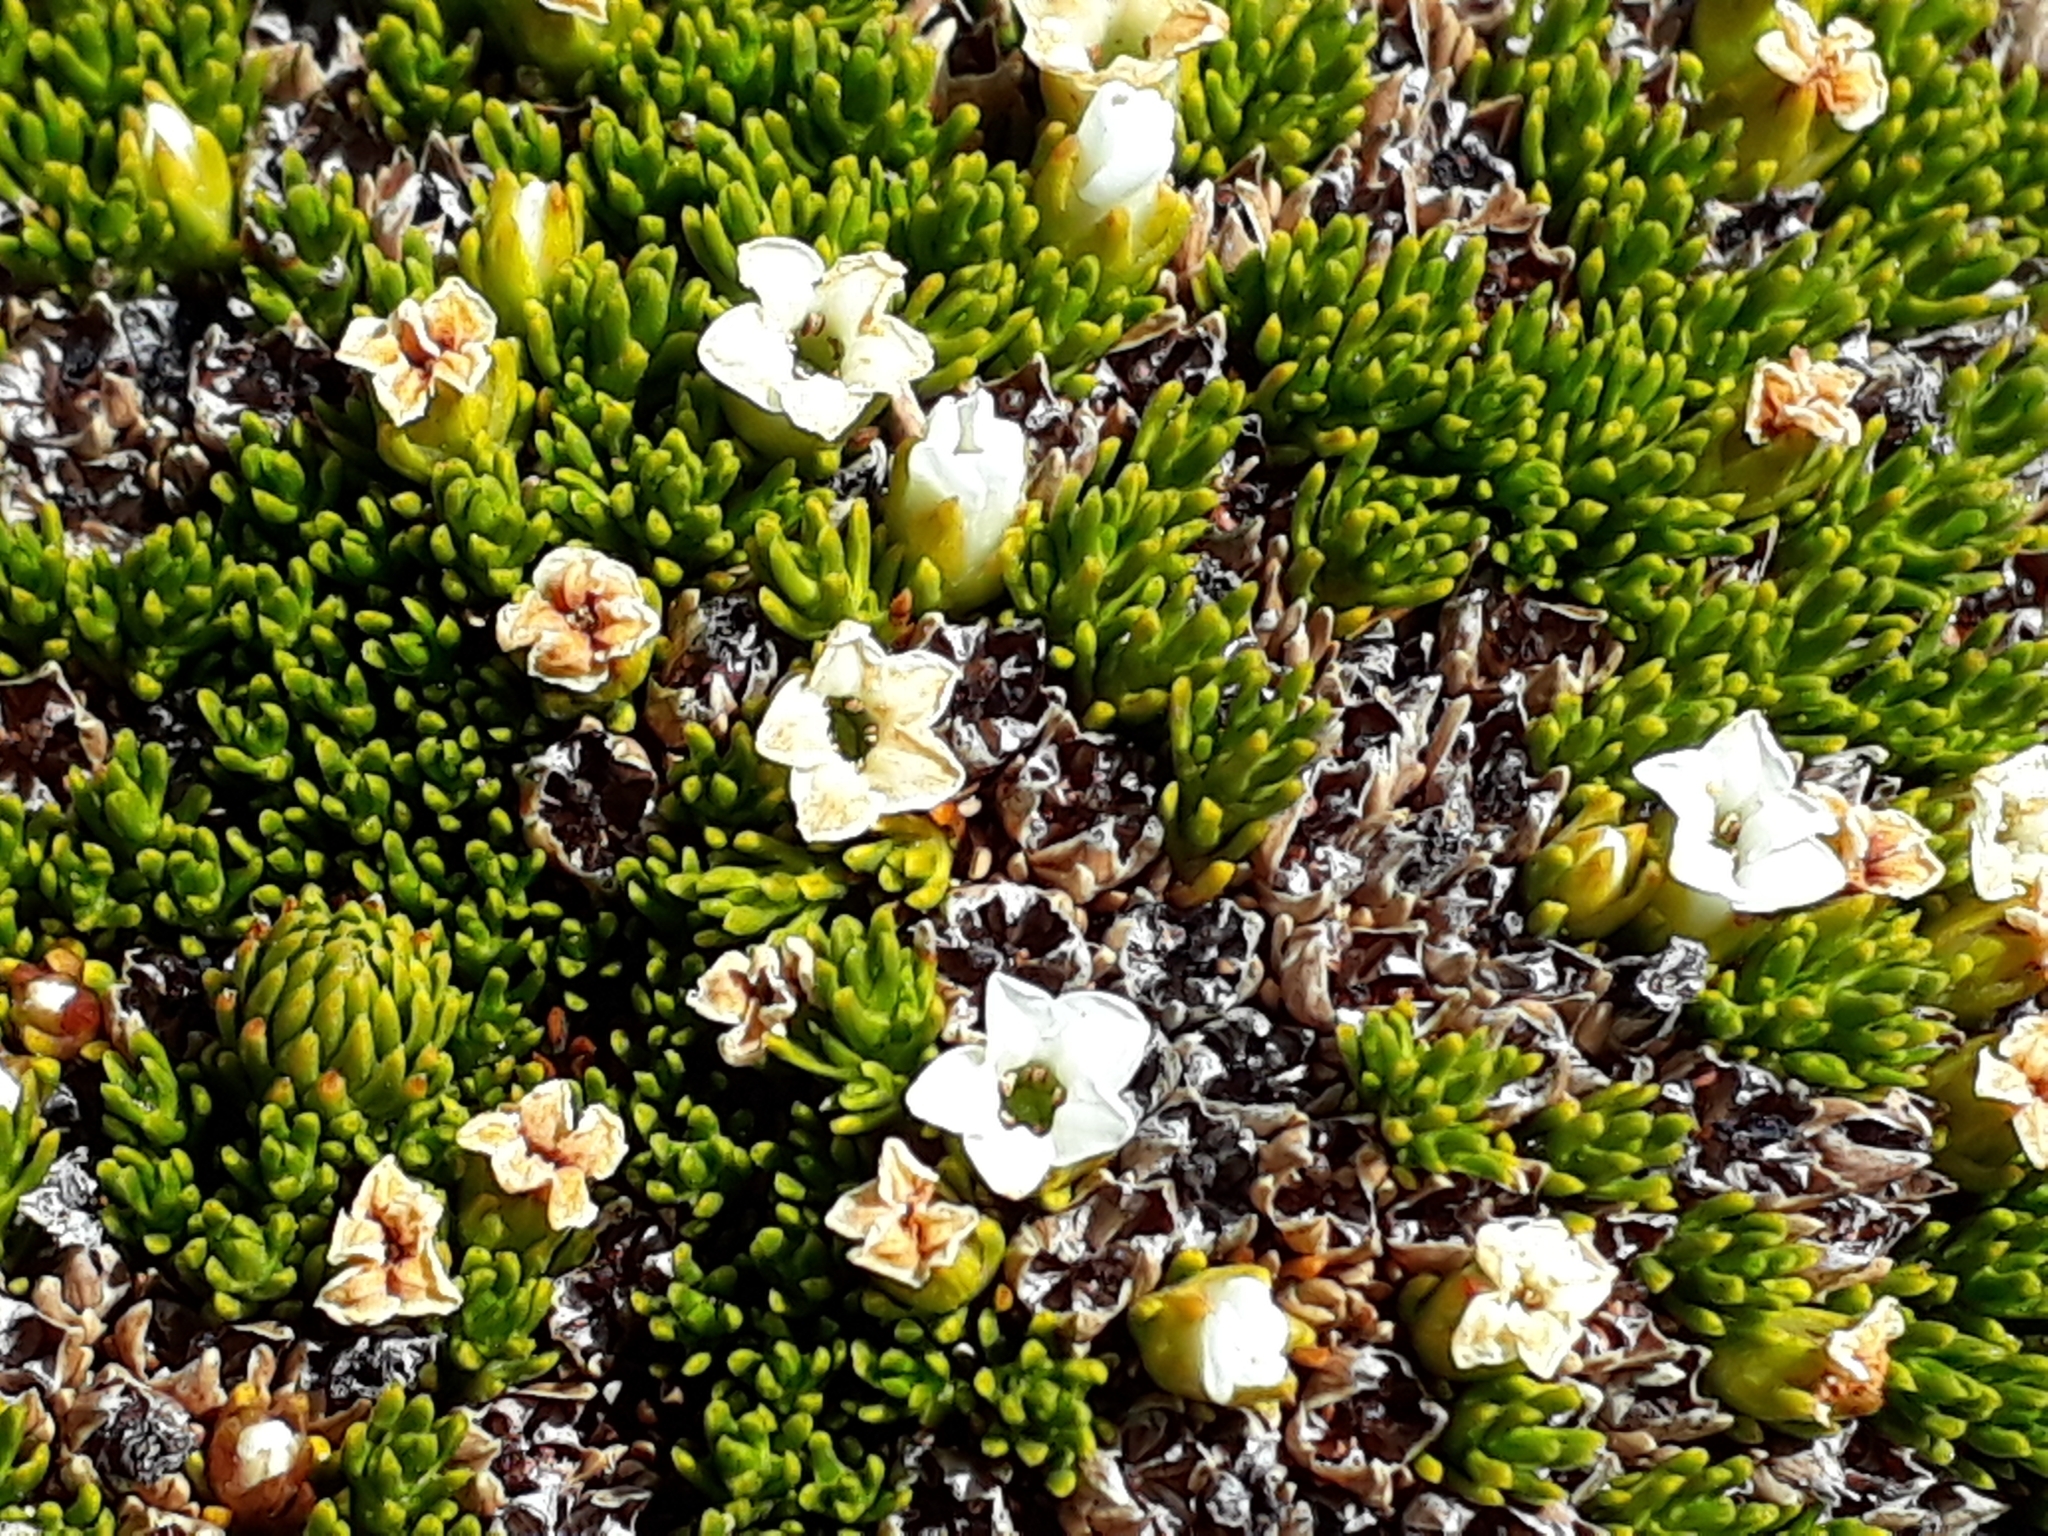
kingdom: Plantae
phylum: Tracheophyta
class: Magnoliopsida
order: Ericales
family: Ericaceae
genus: Dracophyllum
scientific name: Dracophyllum muscoides
